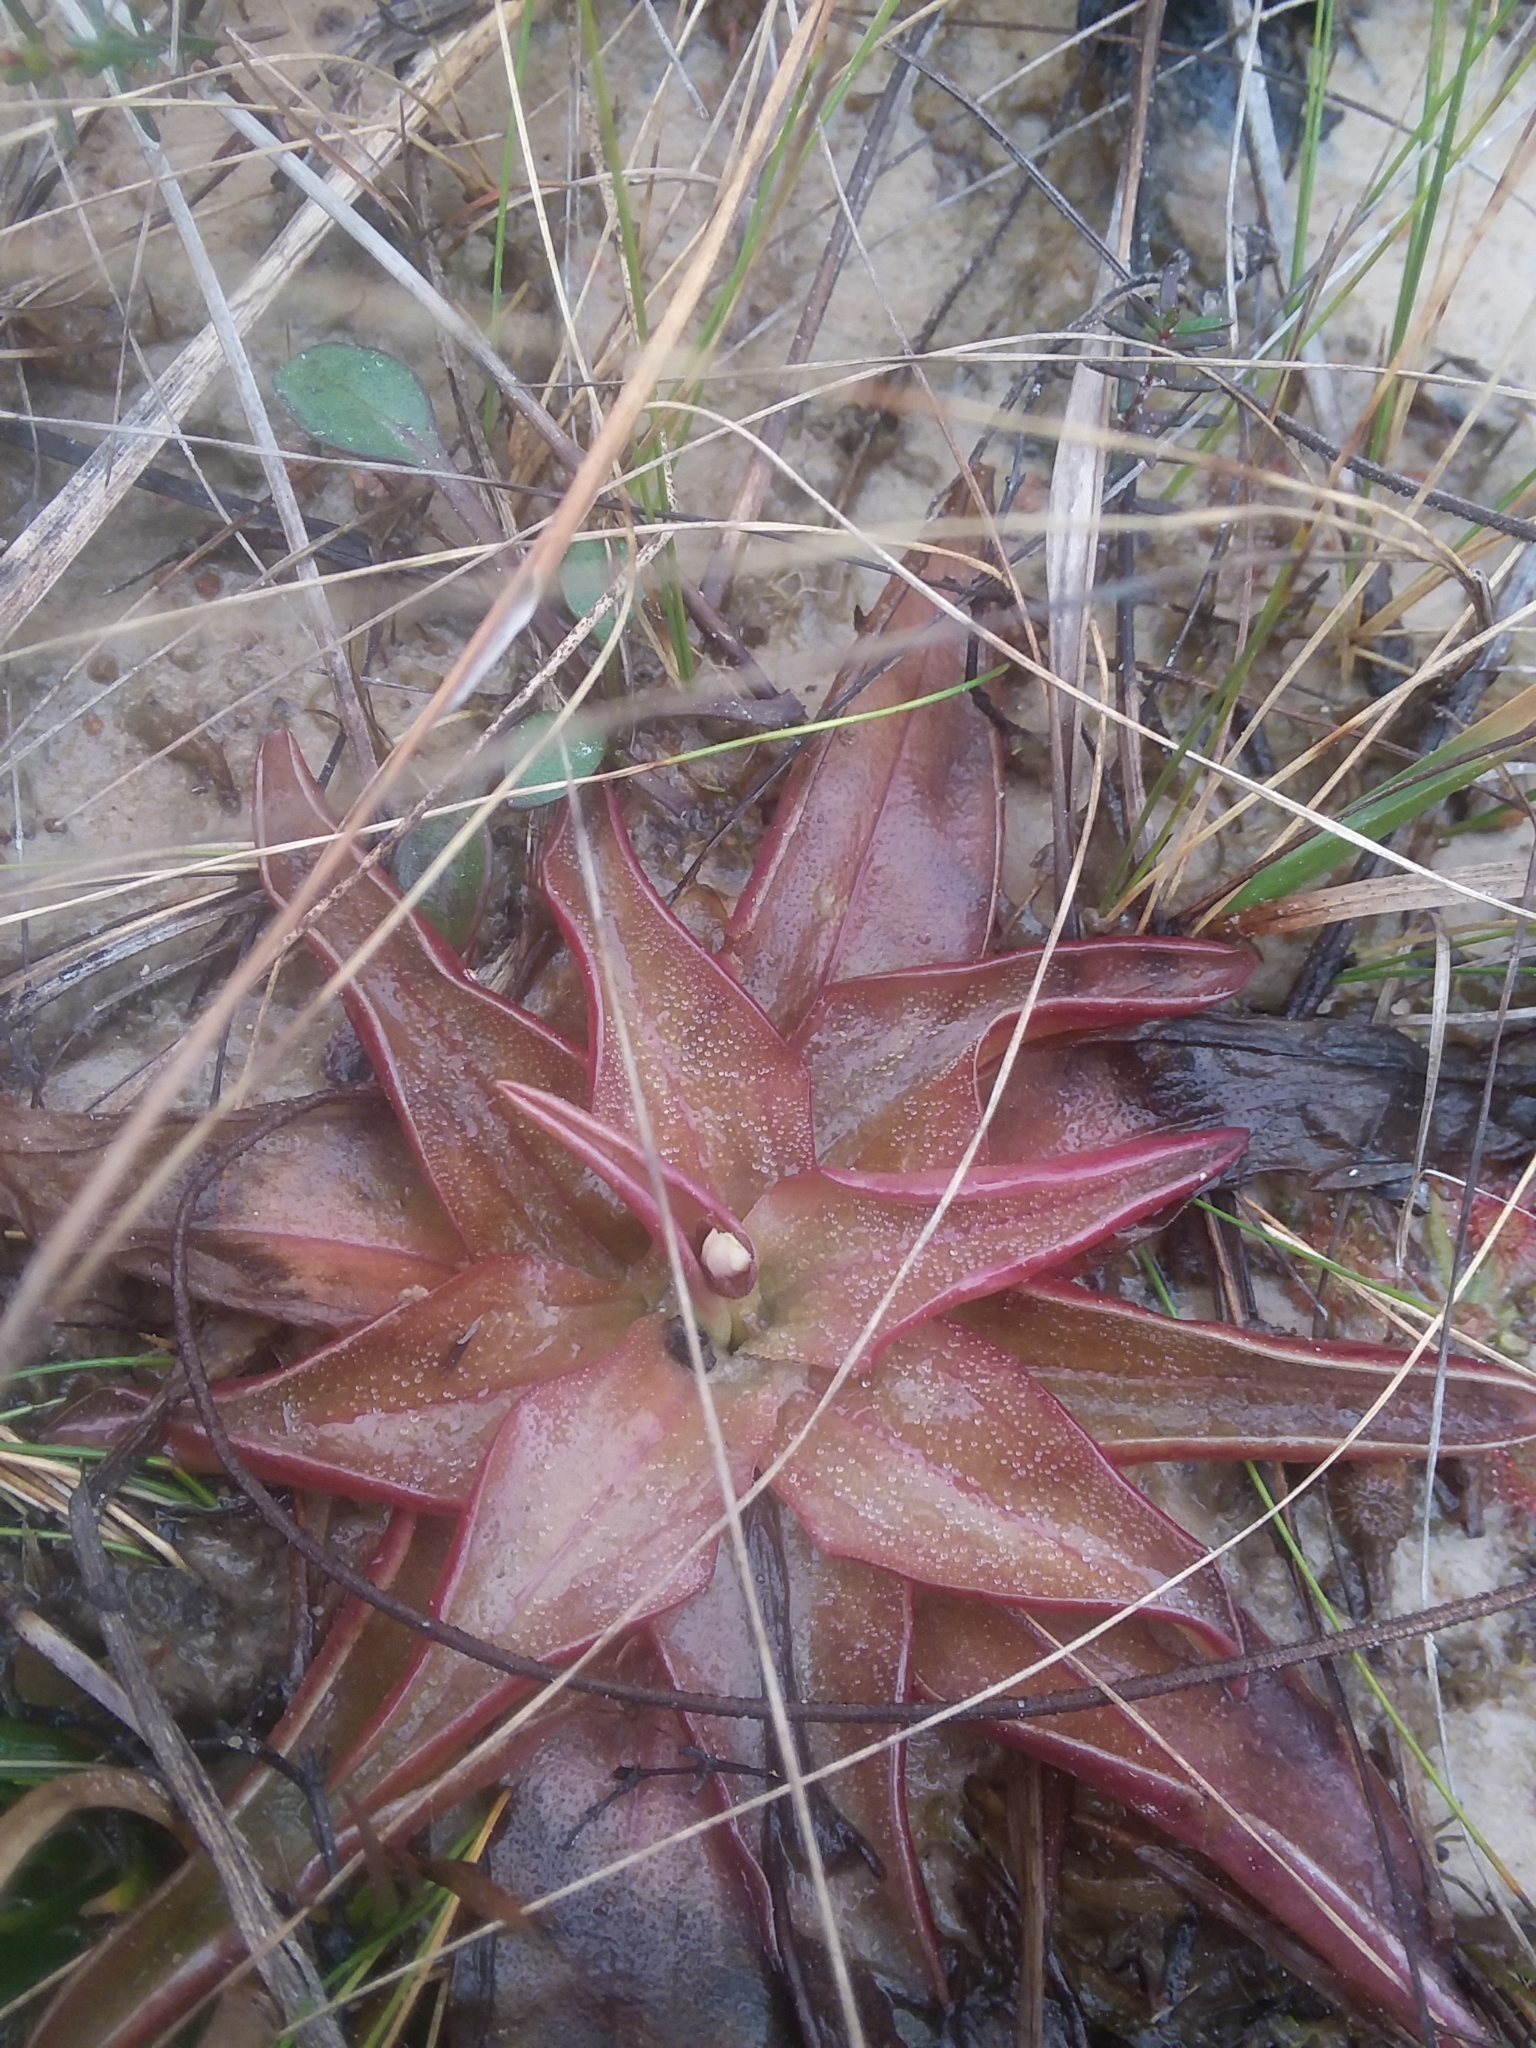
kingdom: Plantae
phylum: Tracheophyta
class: Magnoliopsida
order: Lamiales
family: Lentibulariaceae
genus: Pinguicula
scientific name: Pinguicula planifolia
